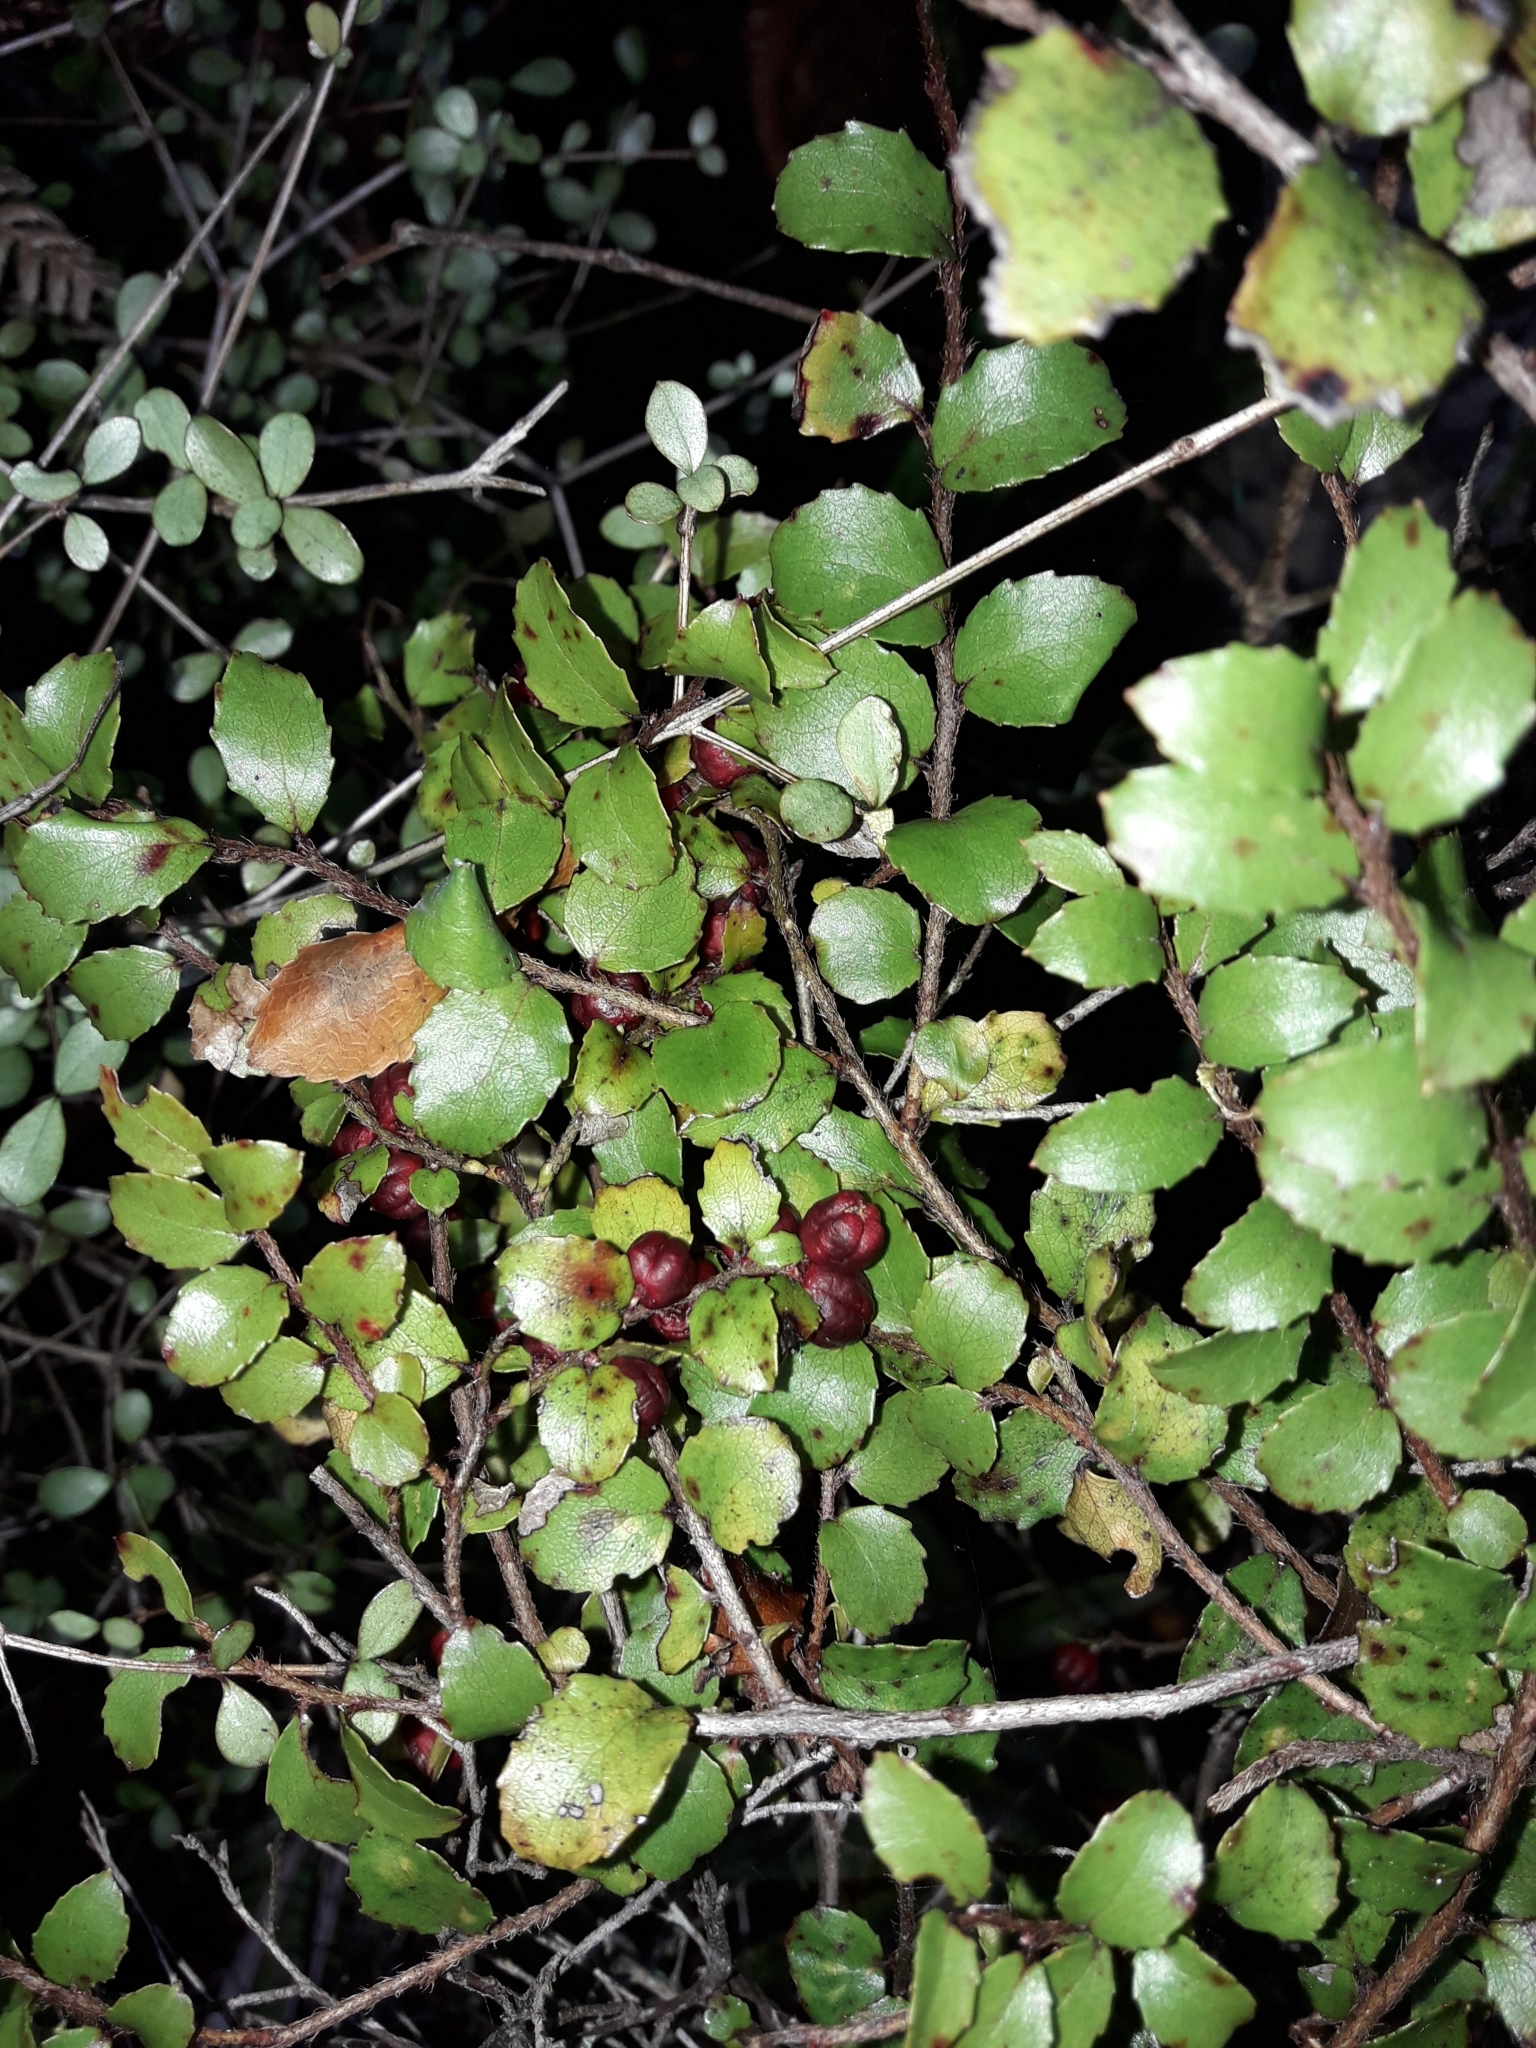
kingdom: Plantae
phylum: Tracheophyta
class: Magnoliopsida
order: Ericales
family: Ericaceae
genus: Gaultheria
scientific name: Gaultheria antipoda
